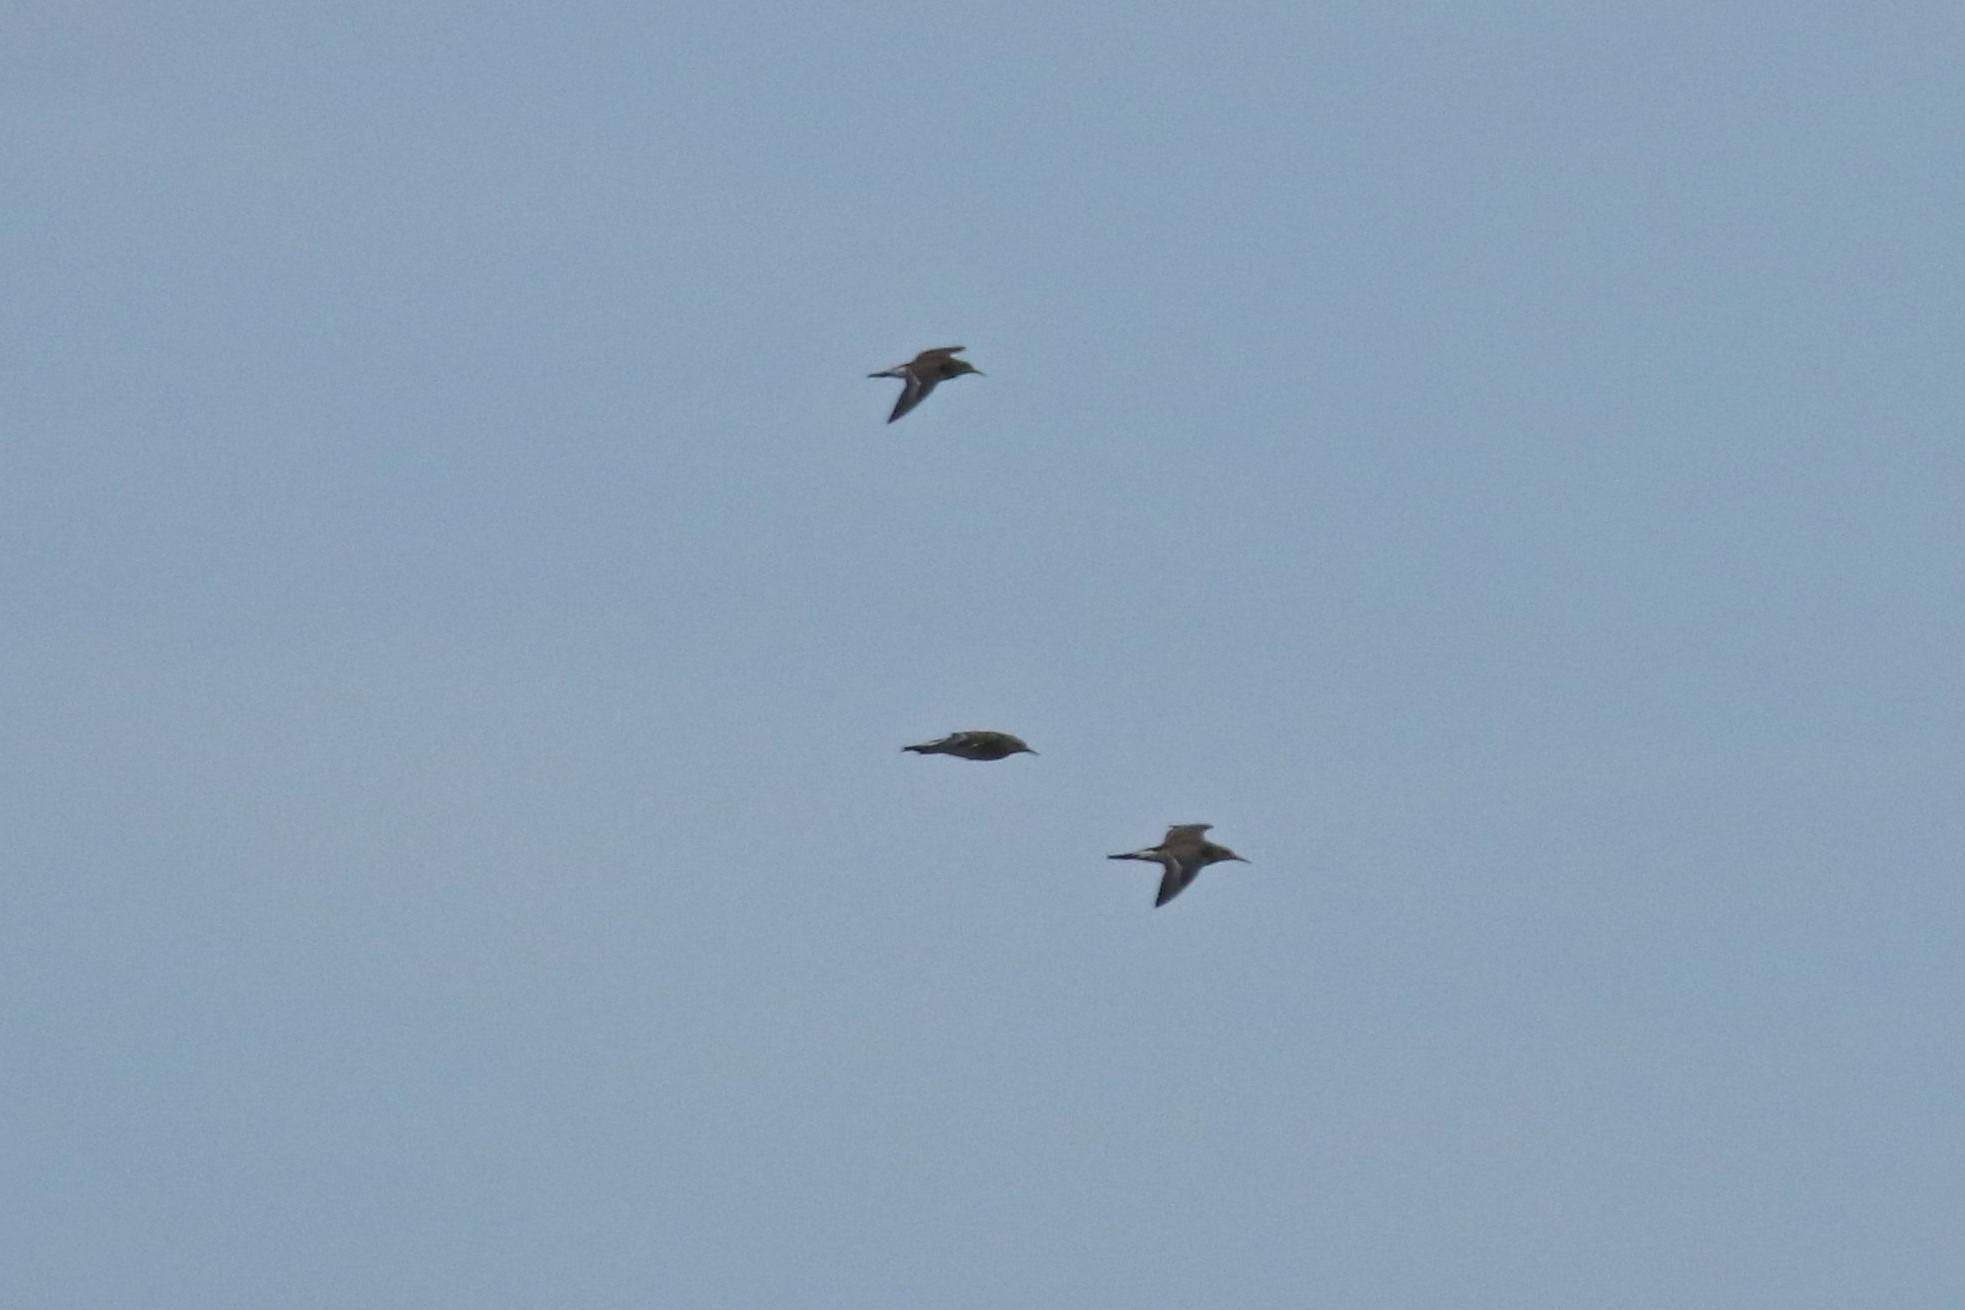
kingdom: Animalia
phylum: Chordata
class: Aves
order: Charadriiformes
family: Scolopacidae
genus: Calidris
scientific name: Calidris pugnax
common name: Ruff
